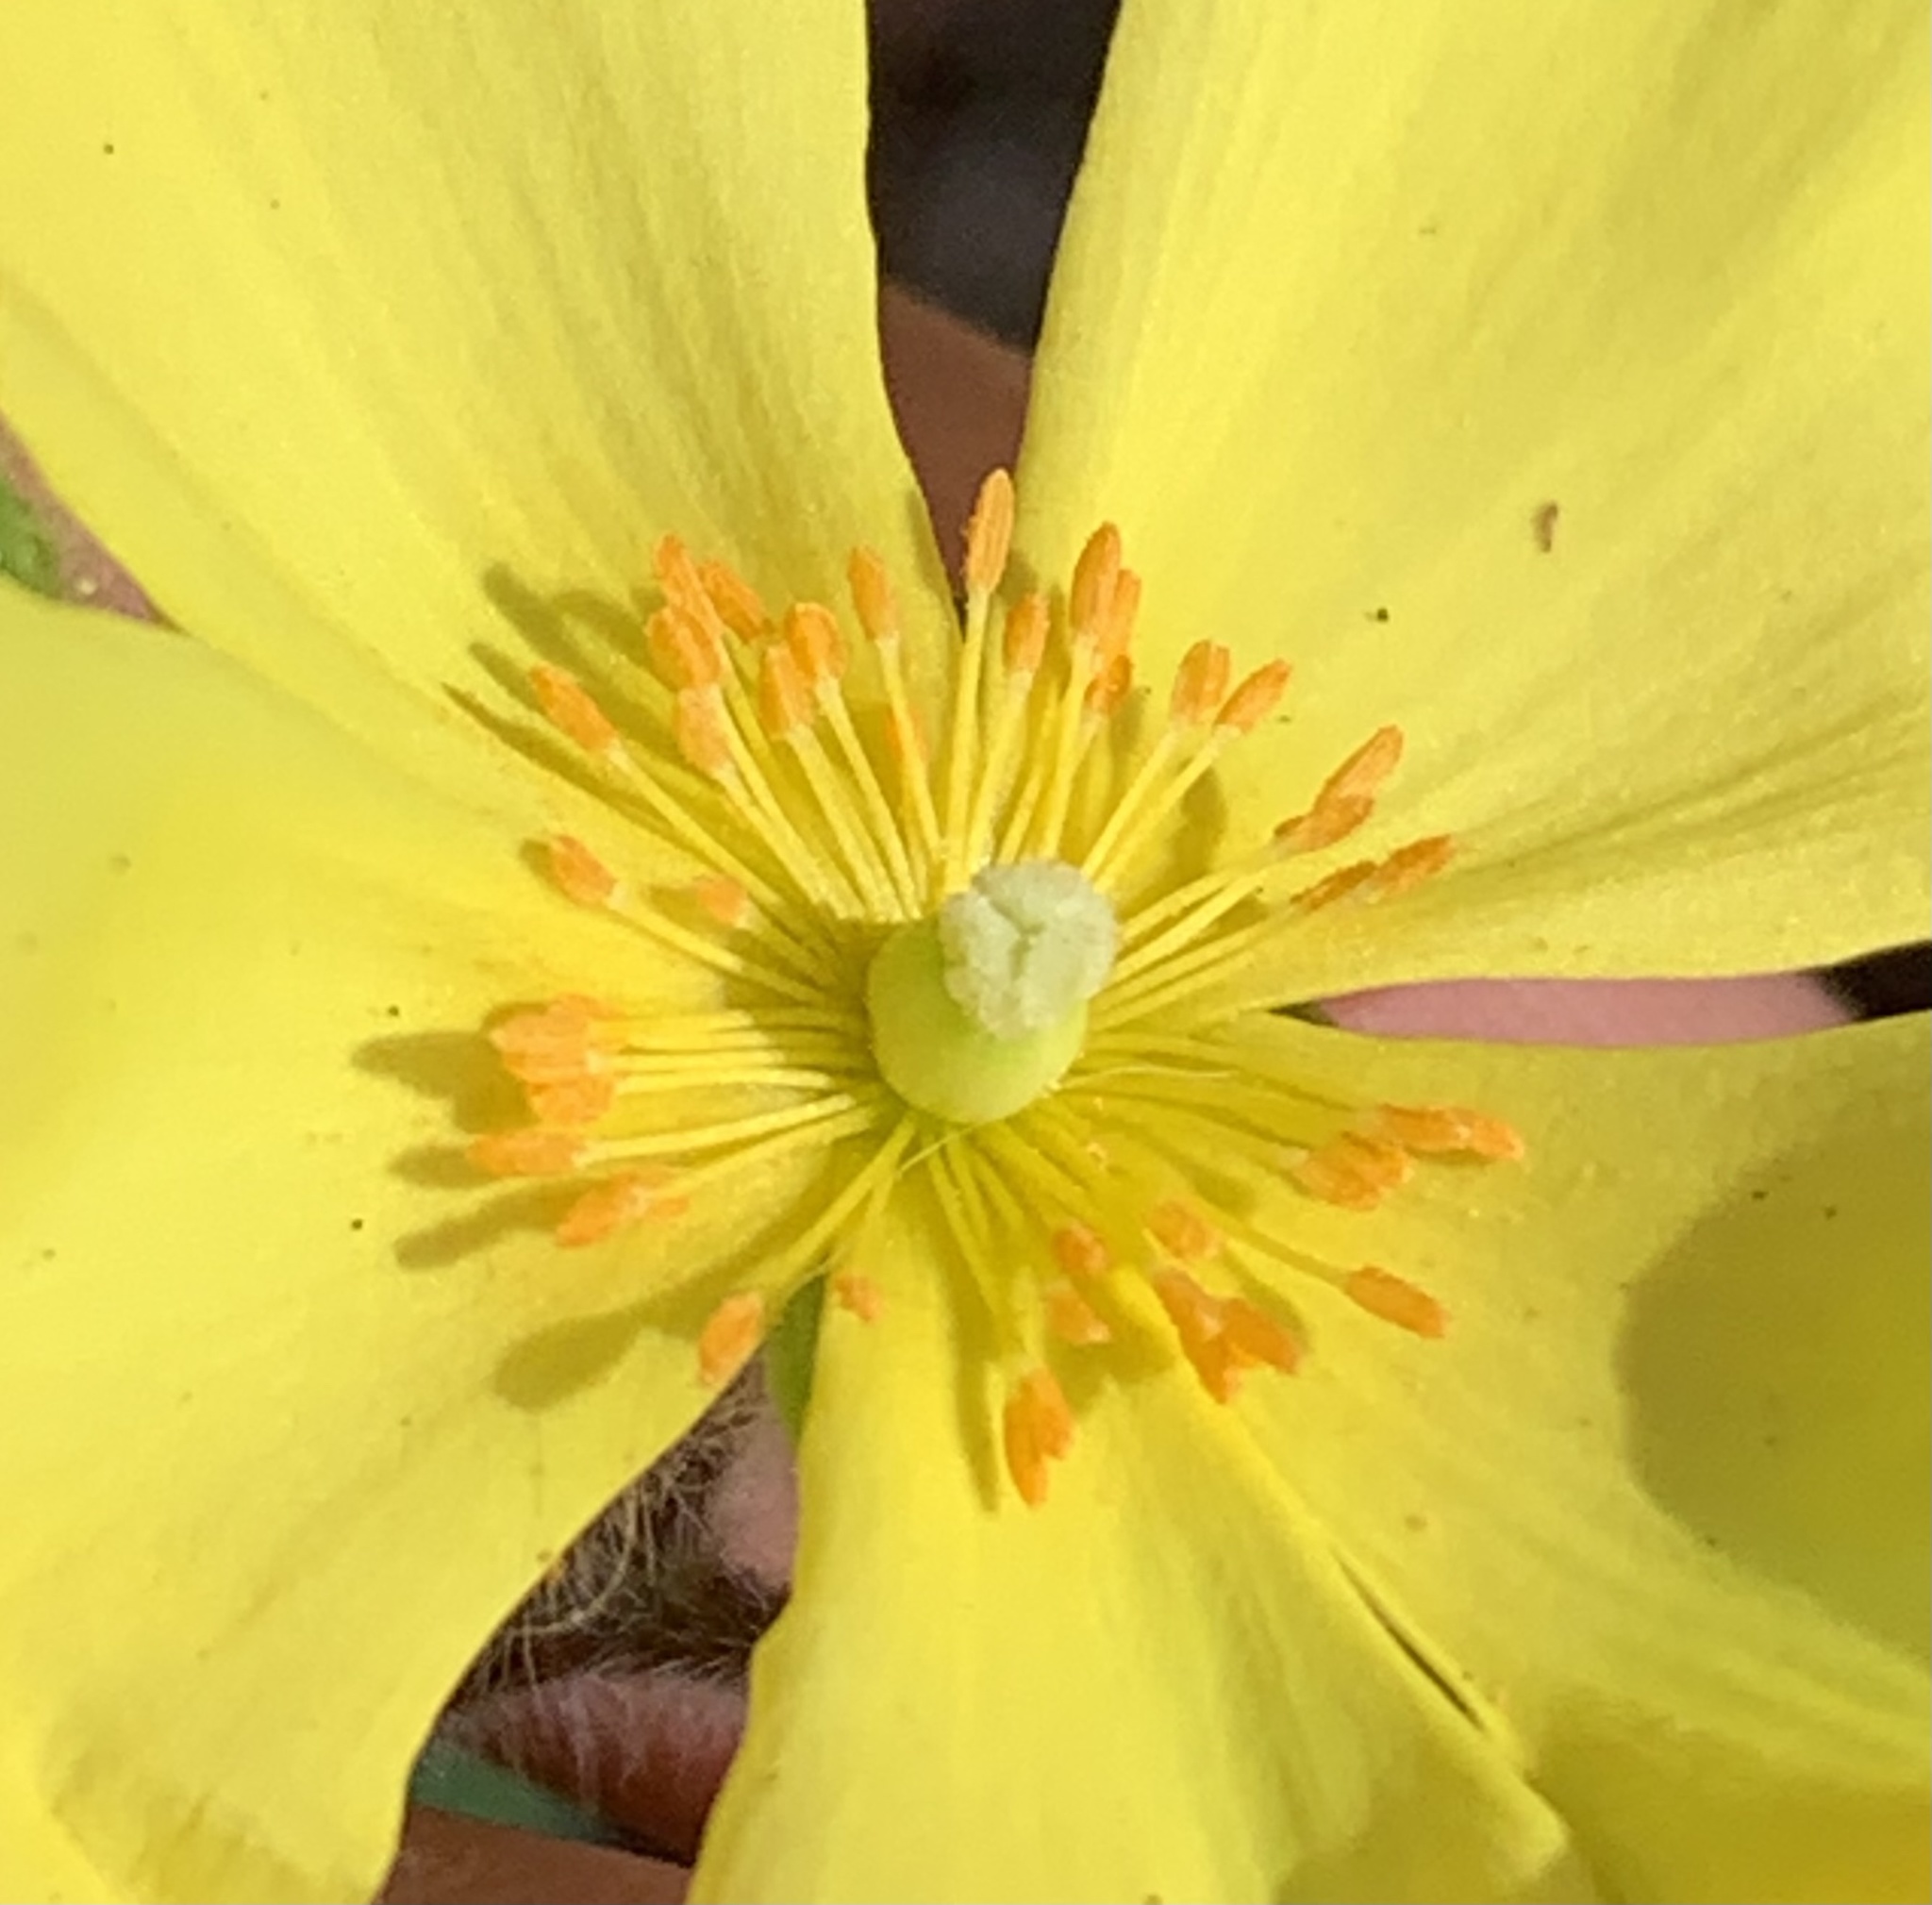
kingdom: Plantae
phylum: Tracheophyta
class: Magnoliopsida
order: Malvales
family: Cistaceae
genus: Crocanthemum
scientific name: Crocanthemum carolinianum
